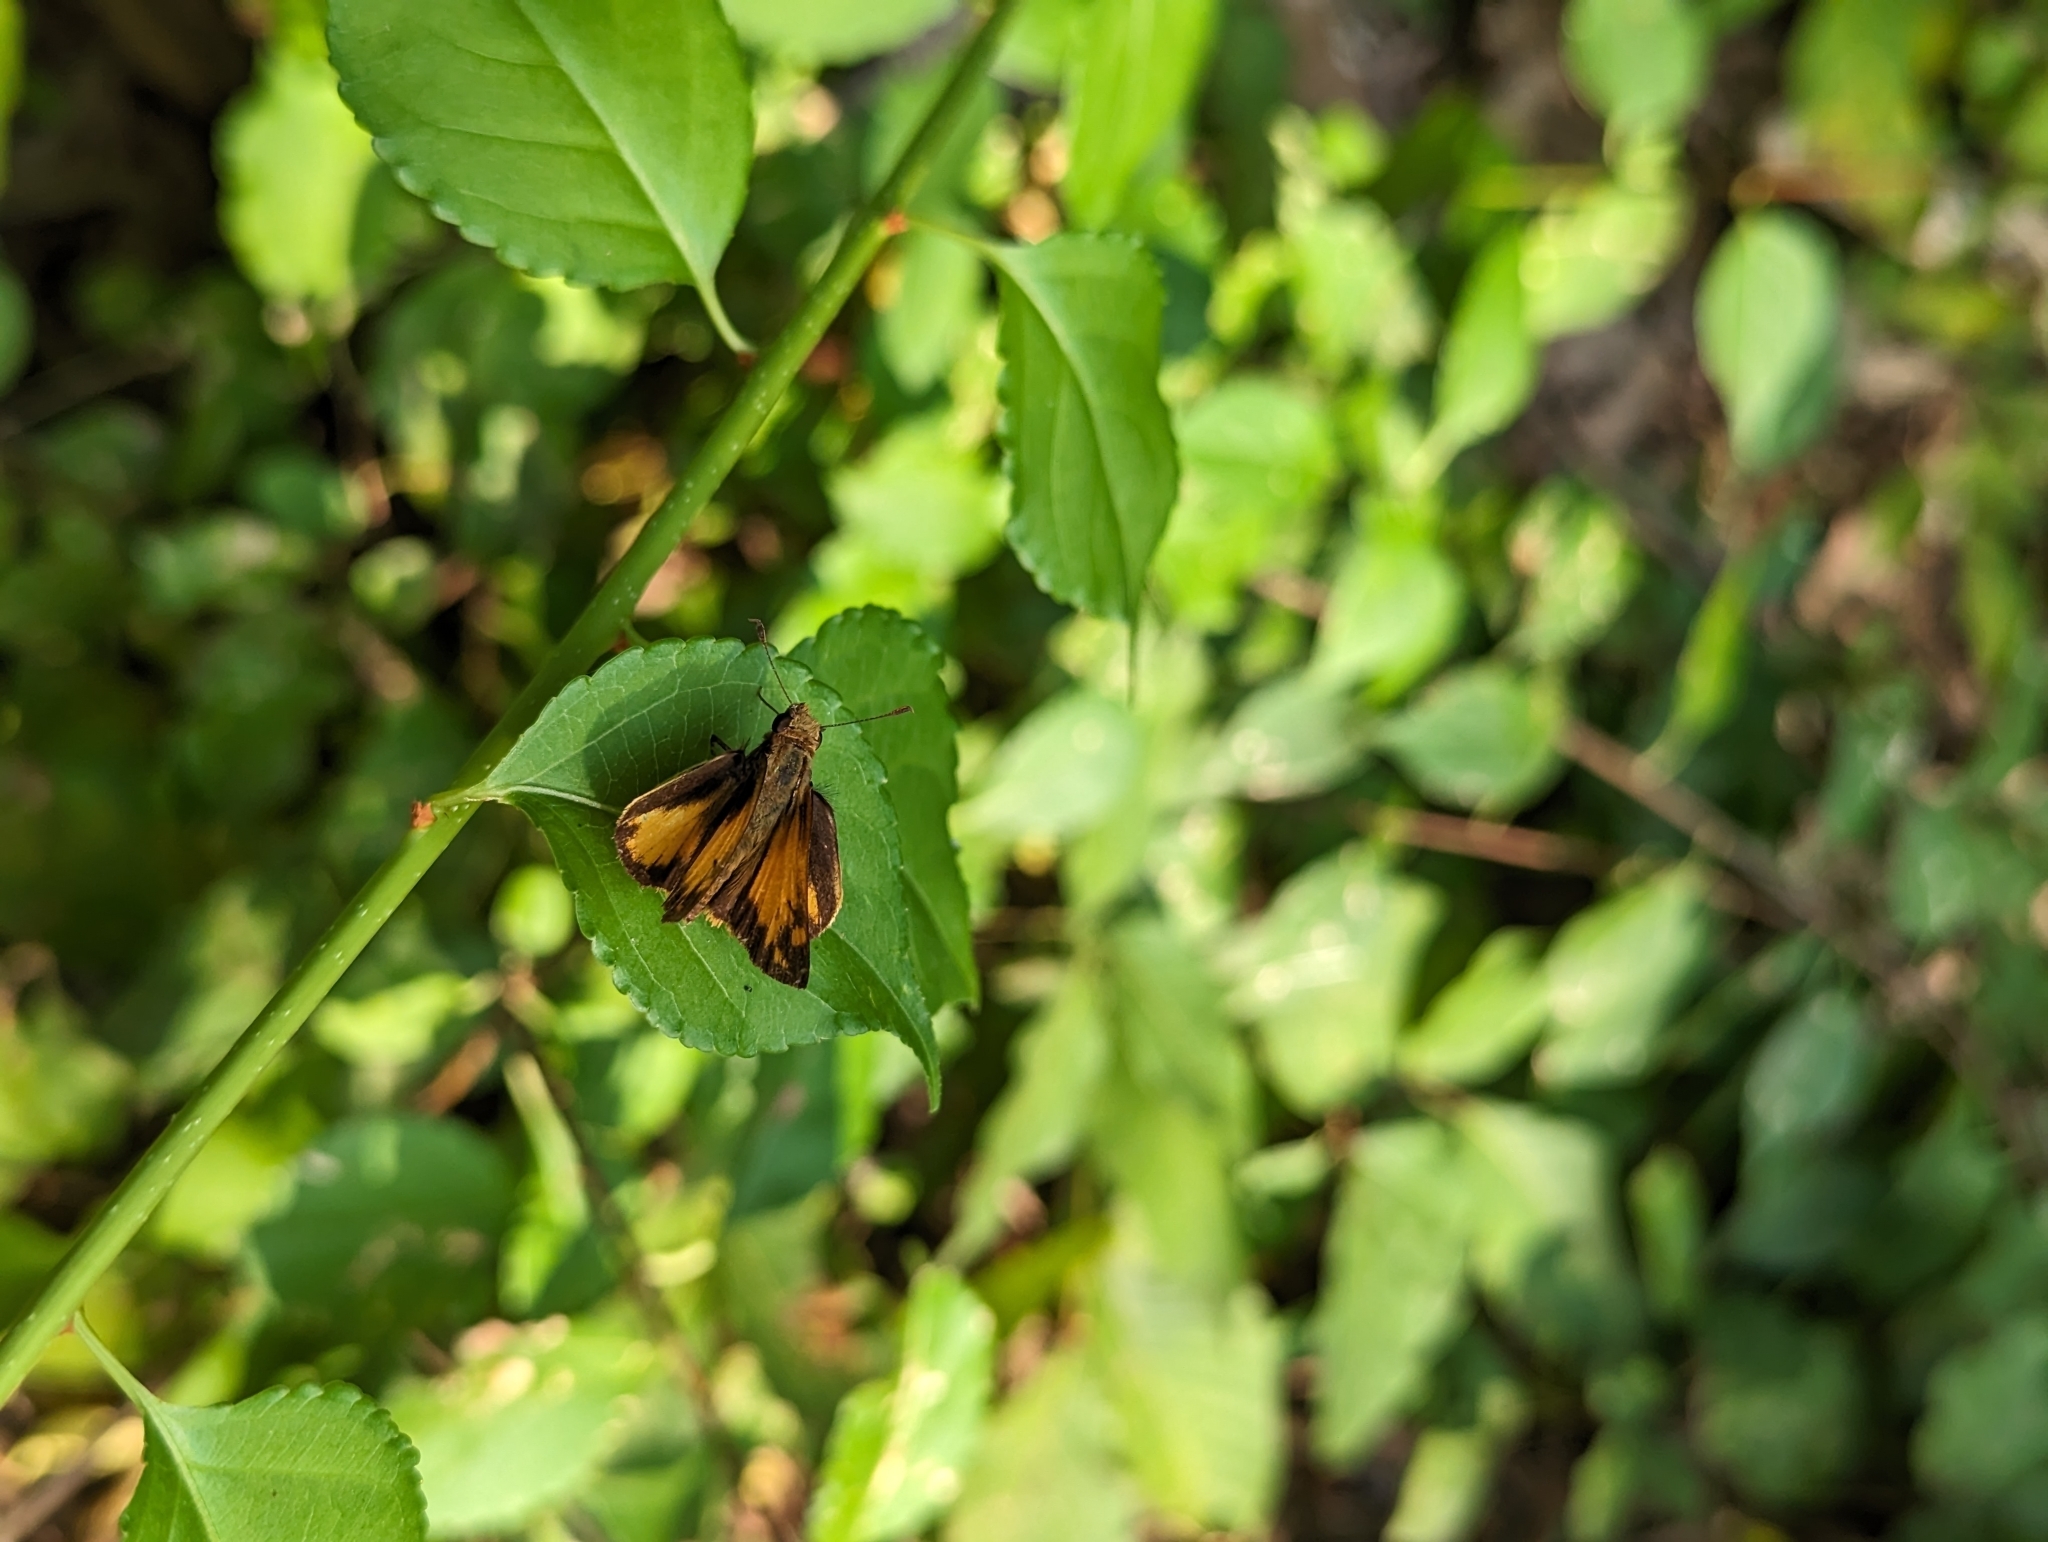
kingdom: Animalia
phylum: Arthropoda
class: Insecta
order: Lepidoptera
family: Hesperiidae
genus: Lon
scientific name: Lon zabulon
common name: Zabulon skipper
